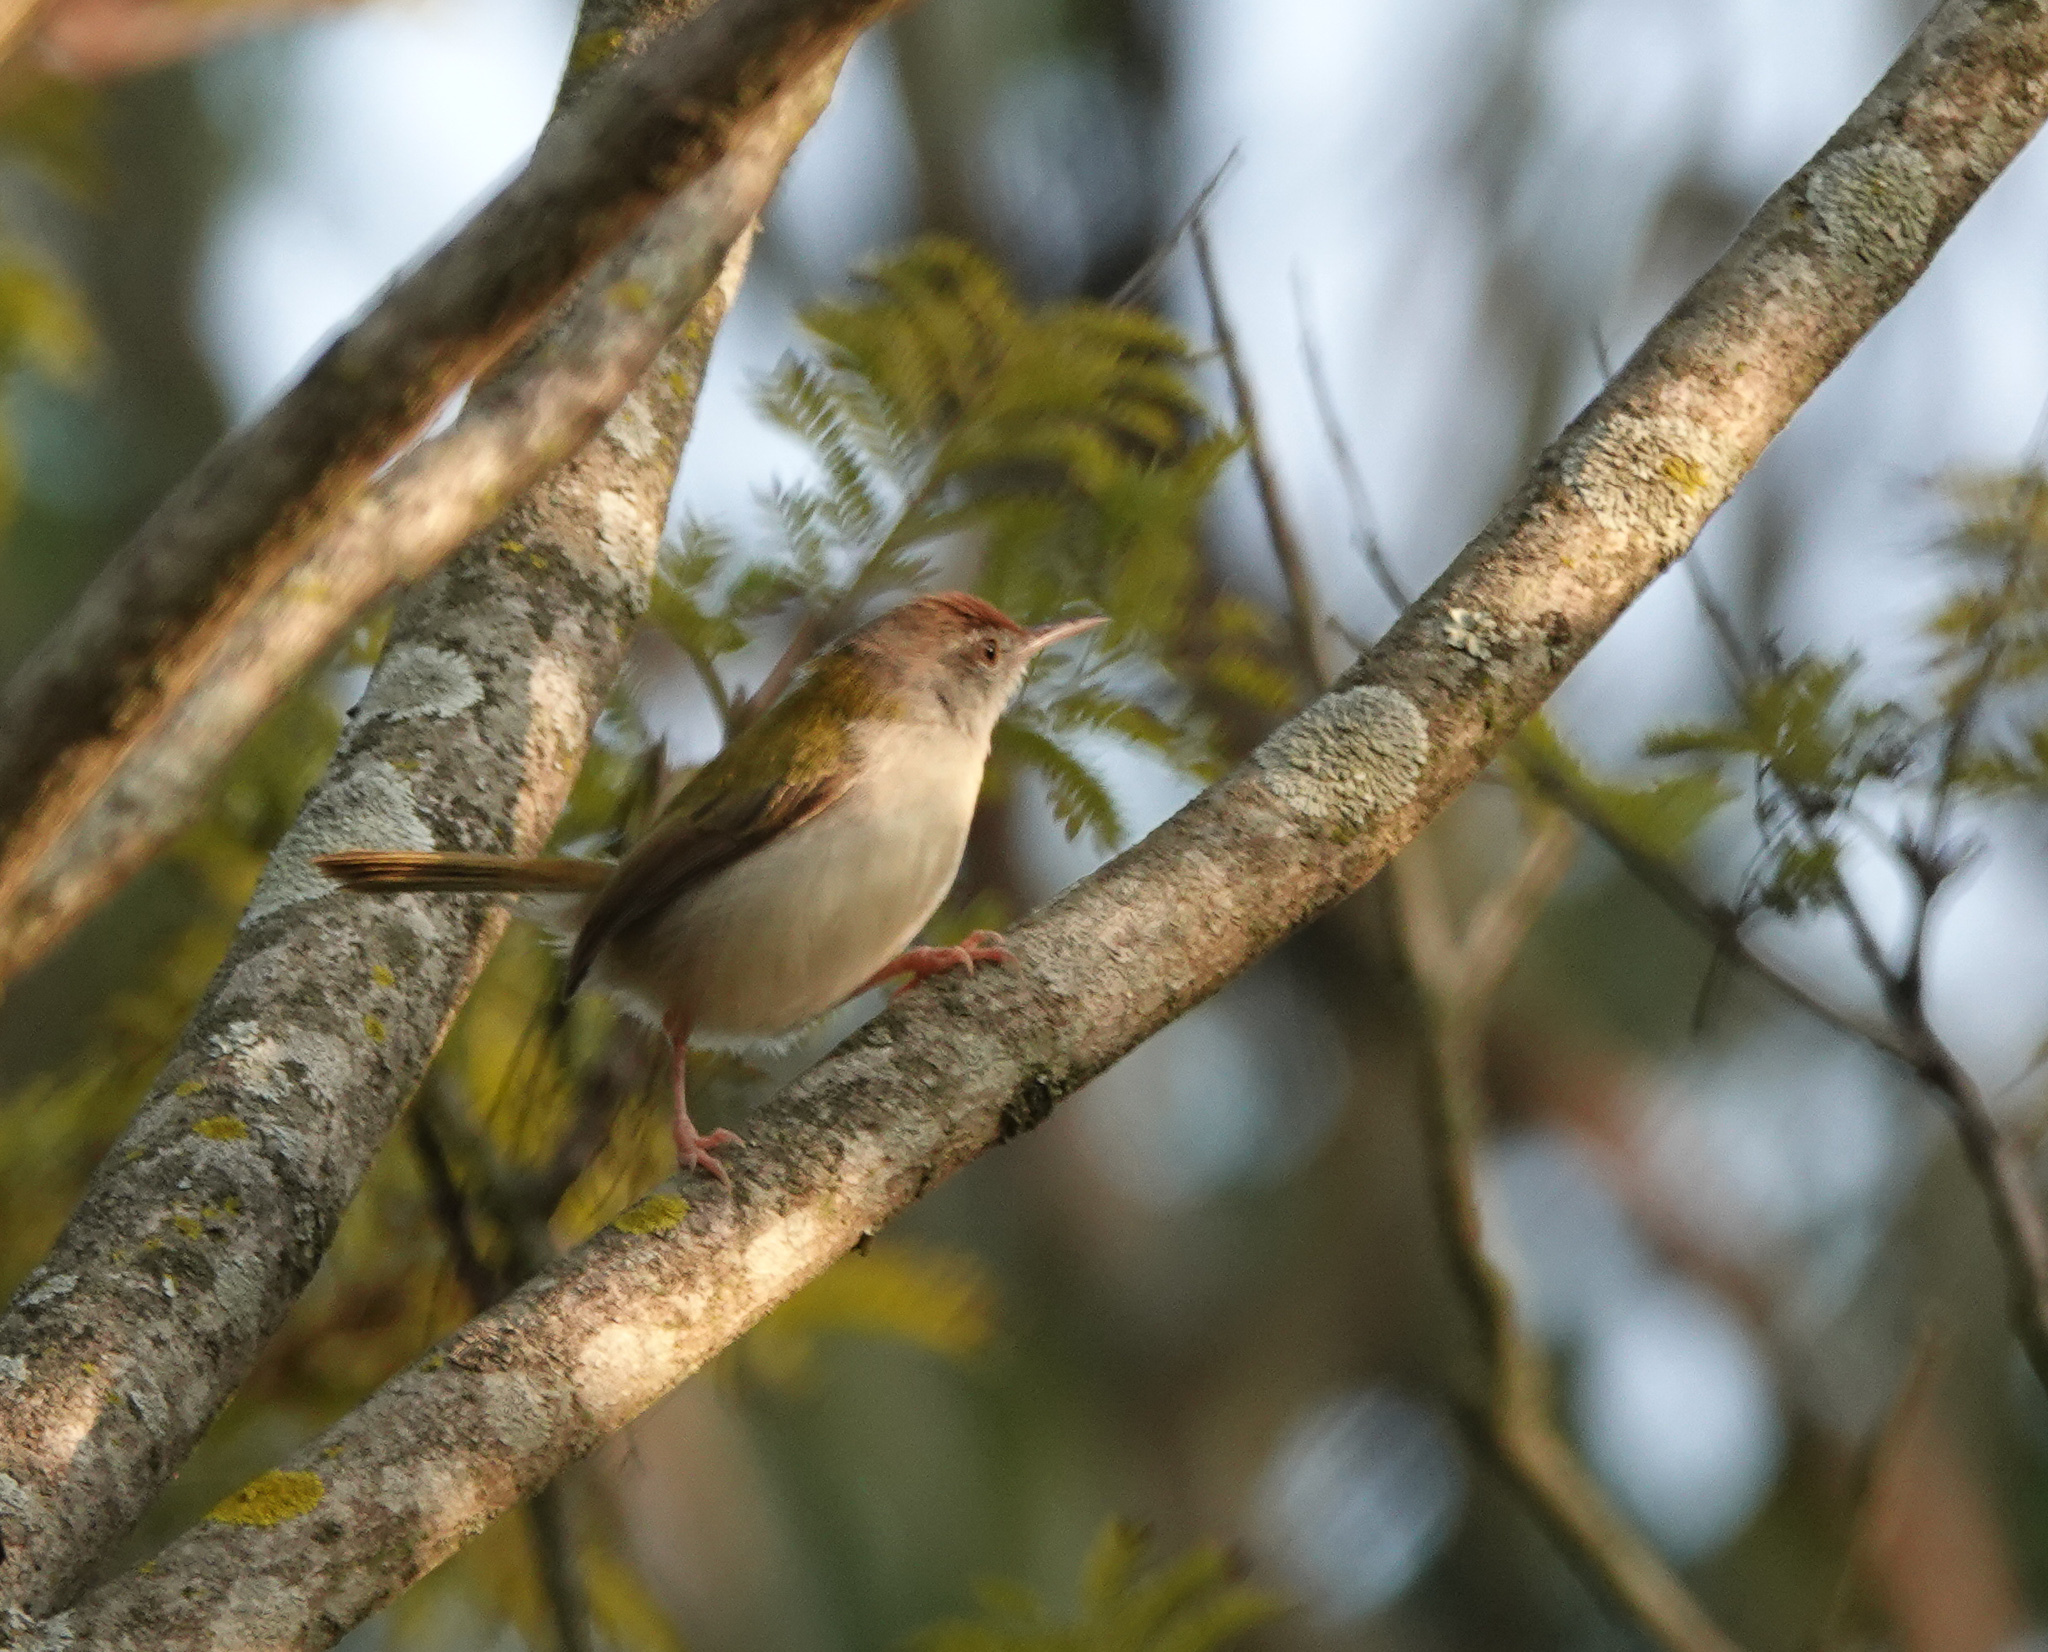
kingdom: Animalia
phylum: Chordata
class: Aves
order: Passeriformes
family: Cisticolidae
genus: Orthotomus
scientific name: Orthotomus sutorius
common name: Common tailorbird
